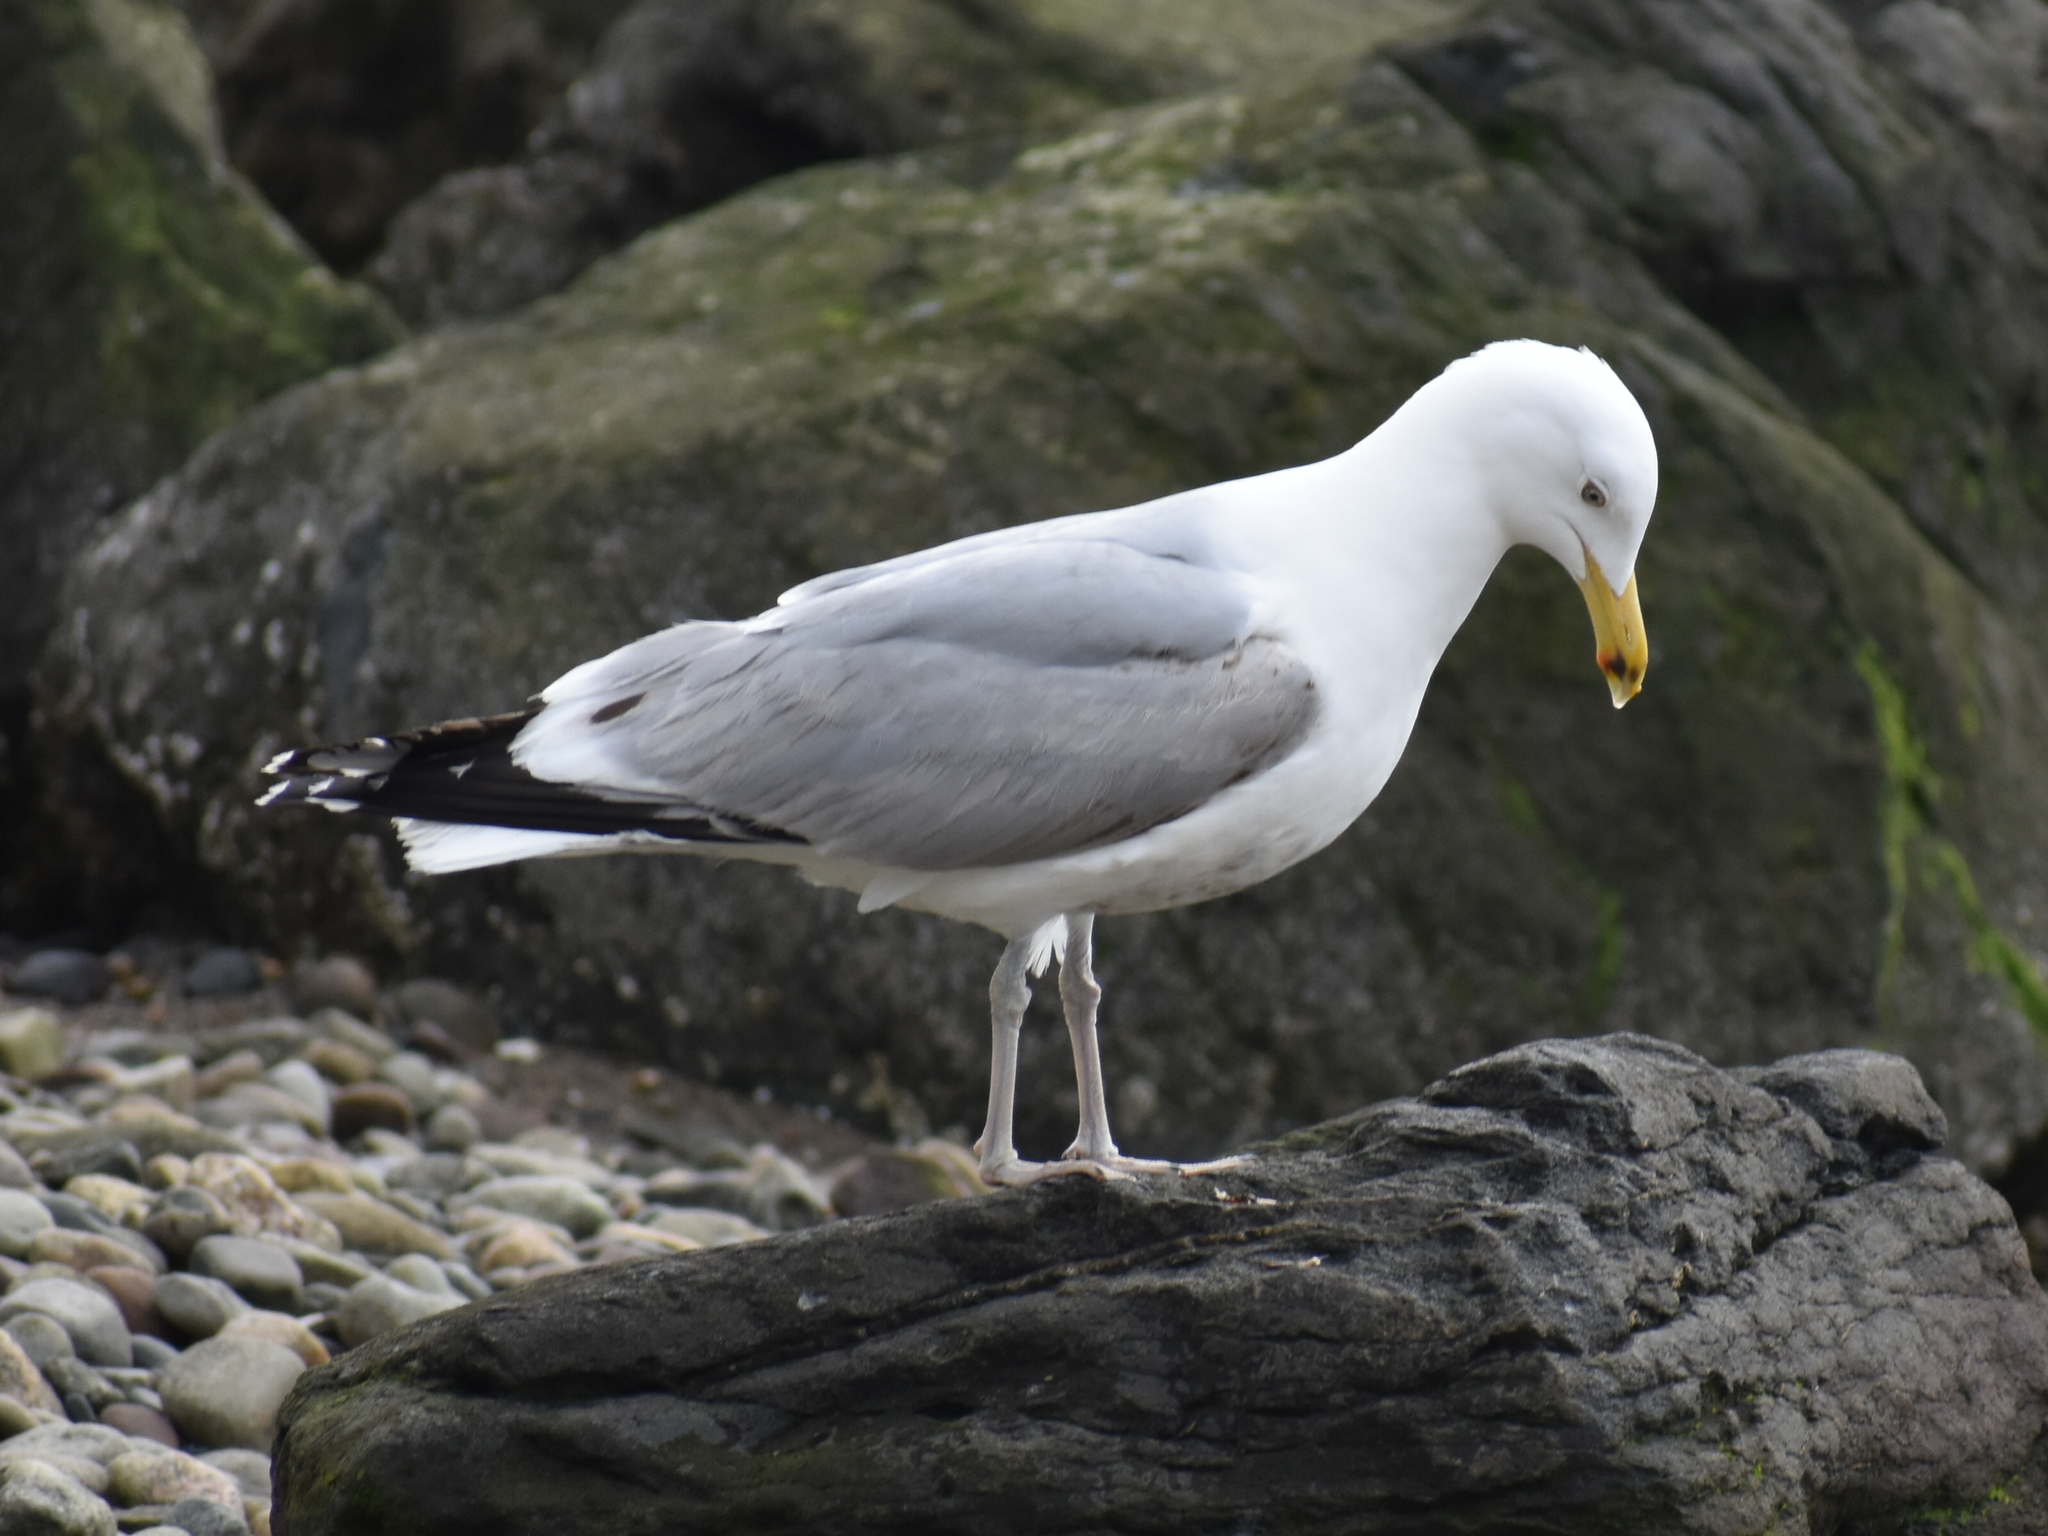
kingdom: Animalia
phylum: Chordata
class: Aves
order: Charadriiformes
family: Laridae
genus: Larus
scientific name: Larus argentatus
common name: Herring gull
